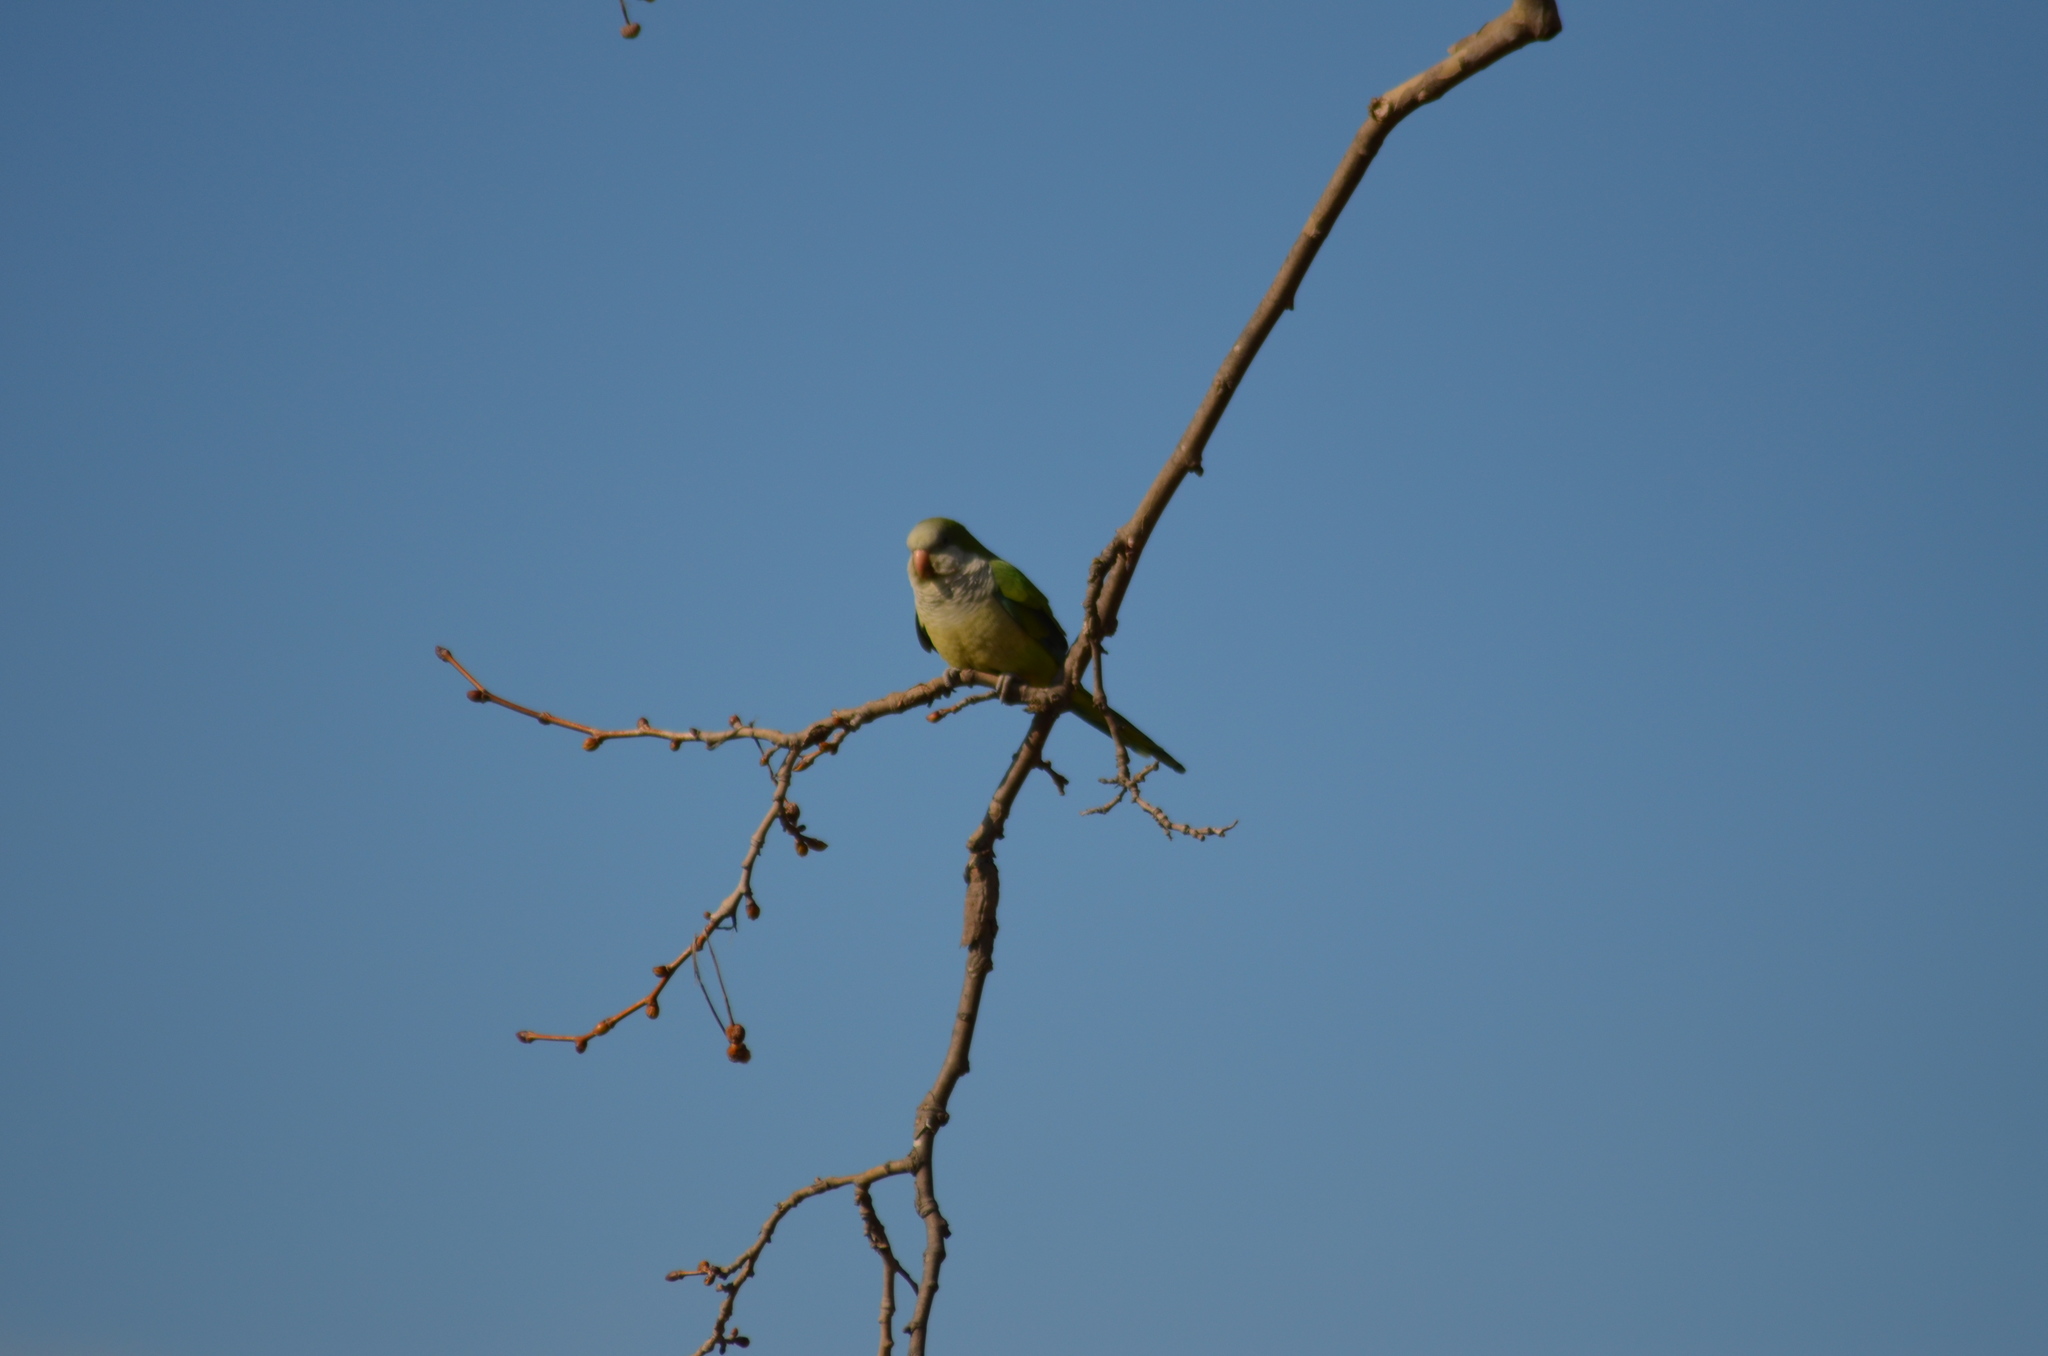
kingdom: Animalia
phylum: Chordata
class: Aves
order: Psittaciformes
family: Psittacidae
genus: Myiopsitta
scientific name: Myiopsitta monachus
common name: Monk parakeet
